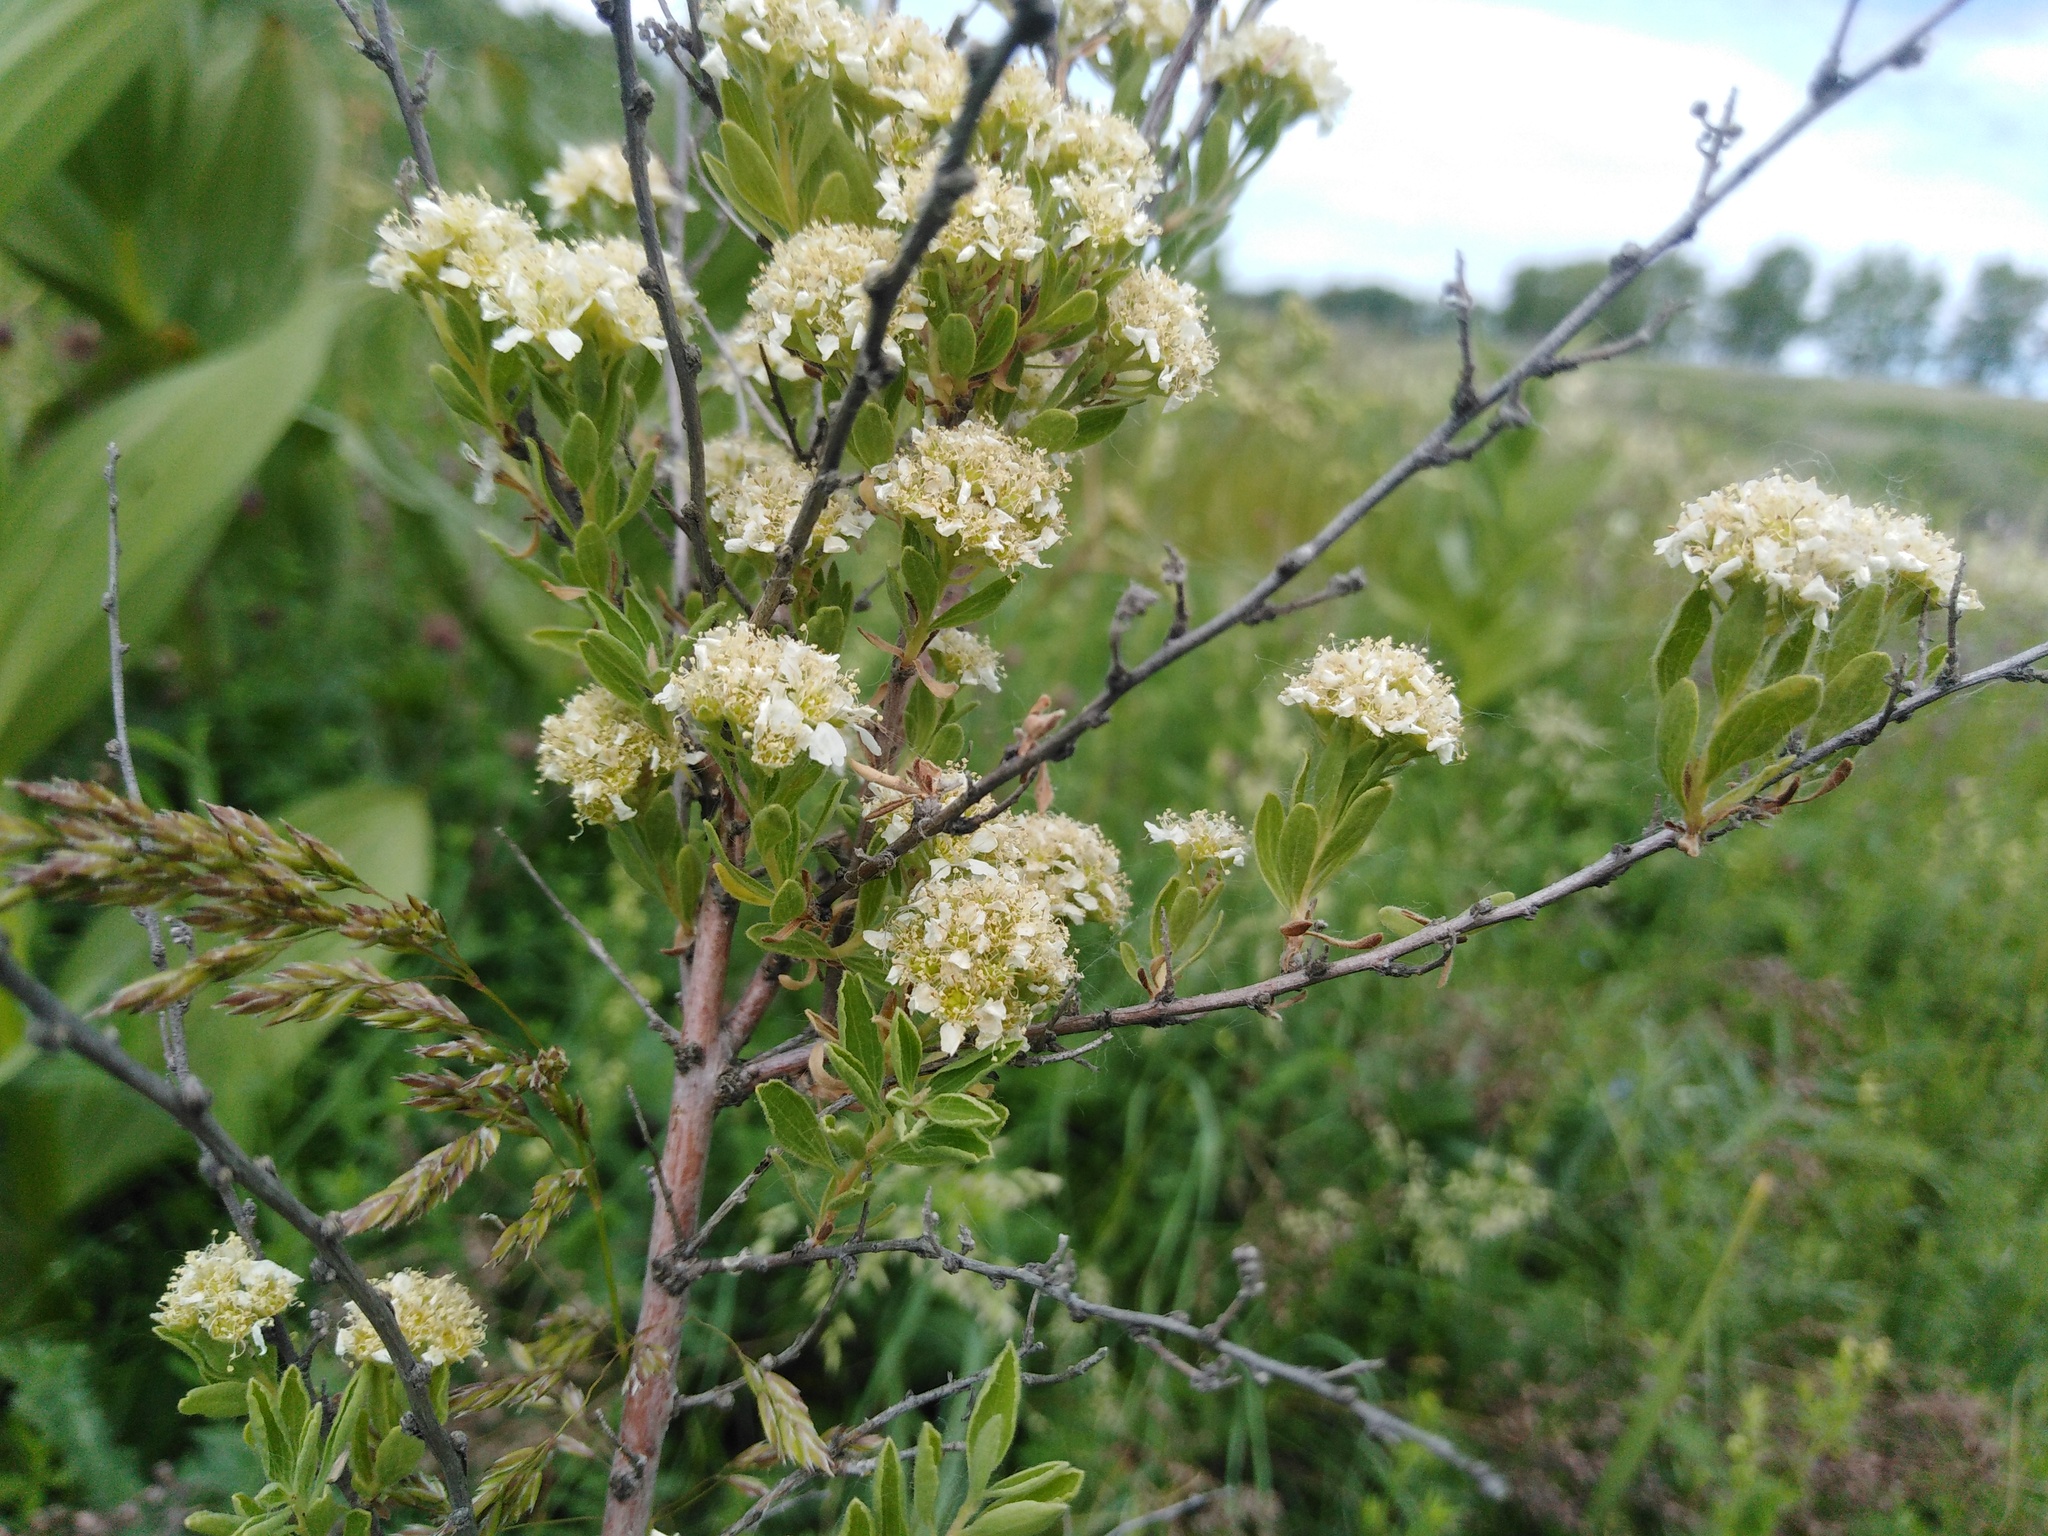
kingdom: Plantae
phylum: Tracheophyta
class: Magnoliopsida
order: Rosales
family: Rosaceae
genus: Spiraea
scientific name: Spiraea crenata
